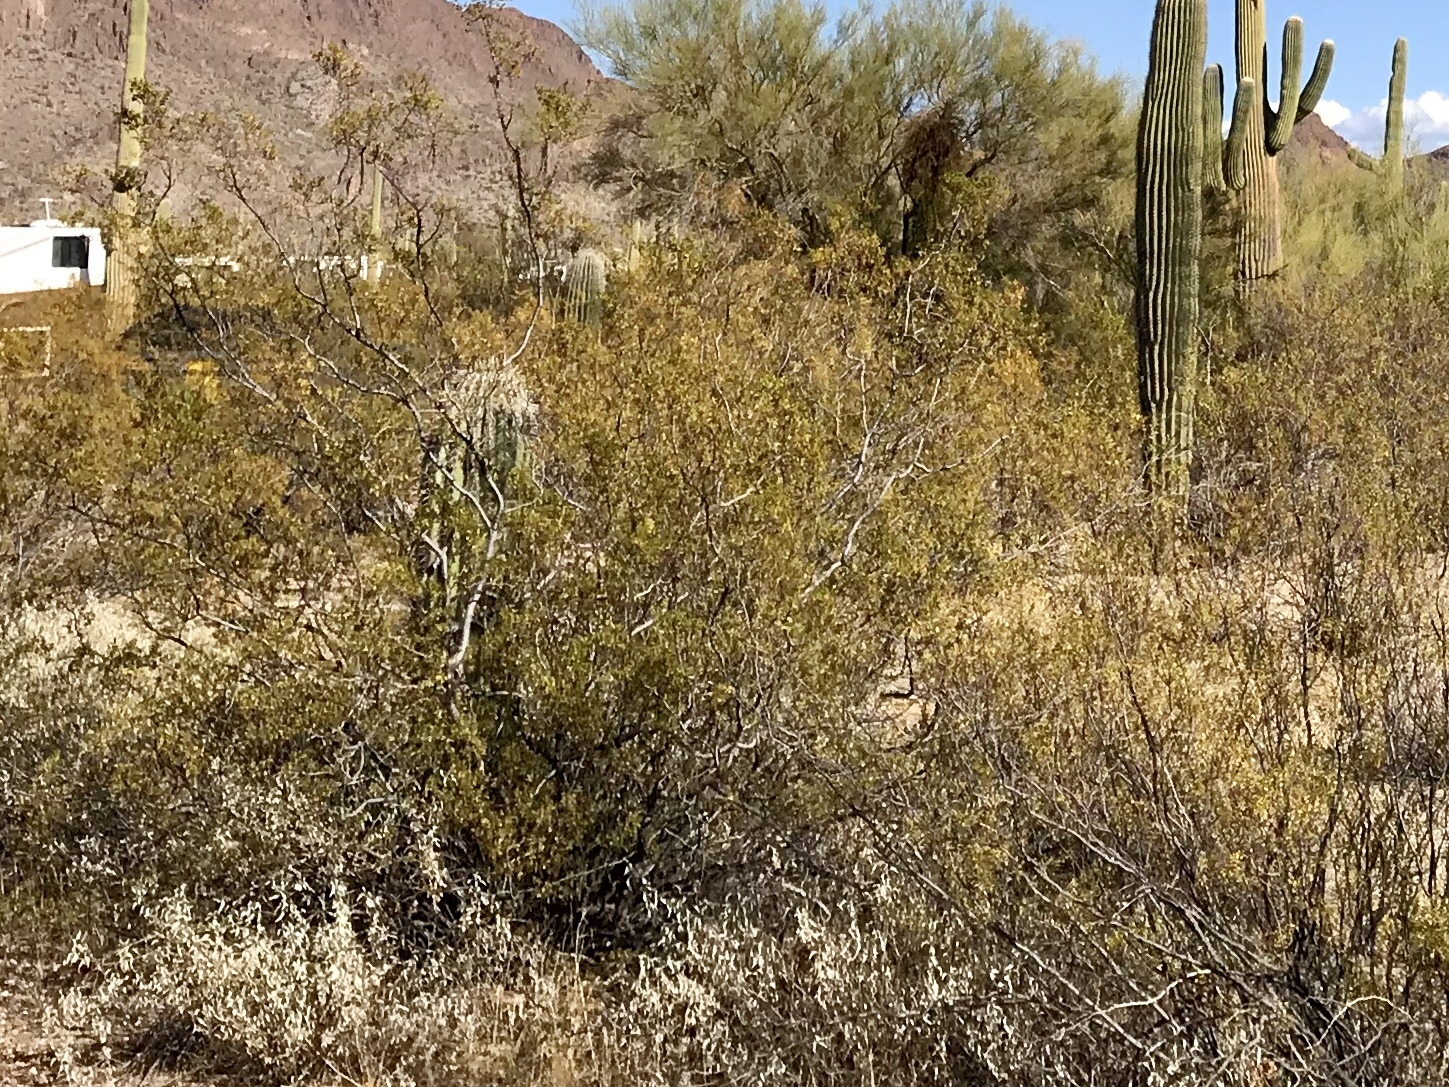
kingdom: Plantae
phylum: Tracheophyta
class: Magnoliopsida
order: Zygophyllales
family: Zygophyllaceae
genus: Larrea
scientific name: Larrea tridentata
